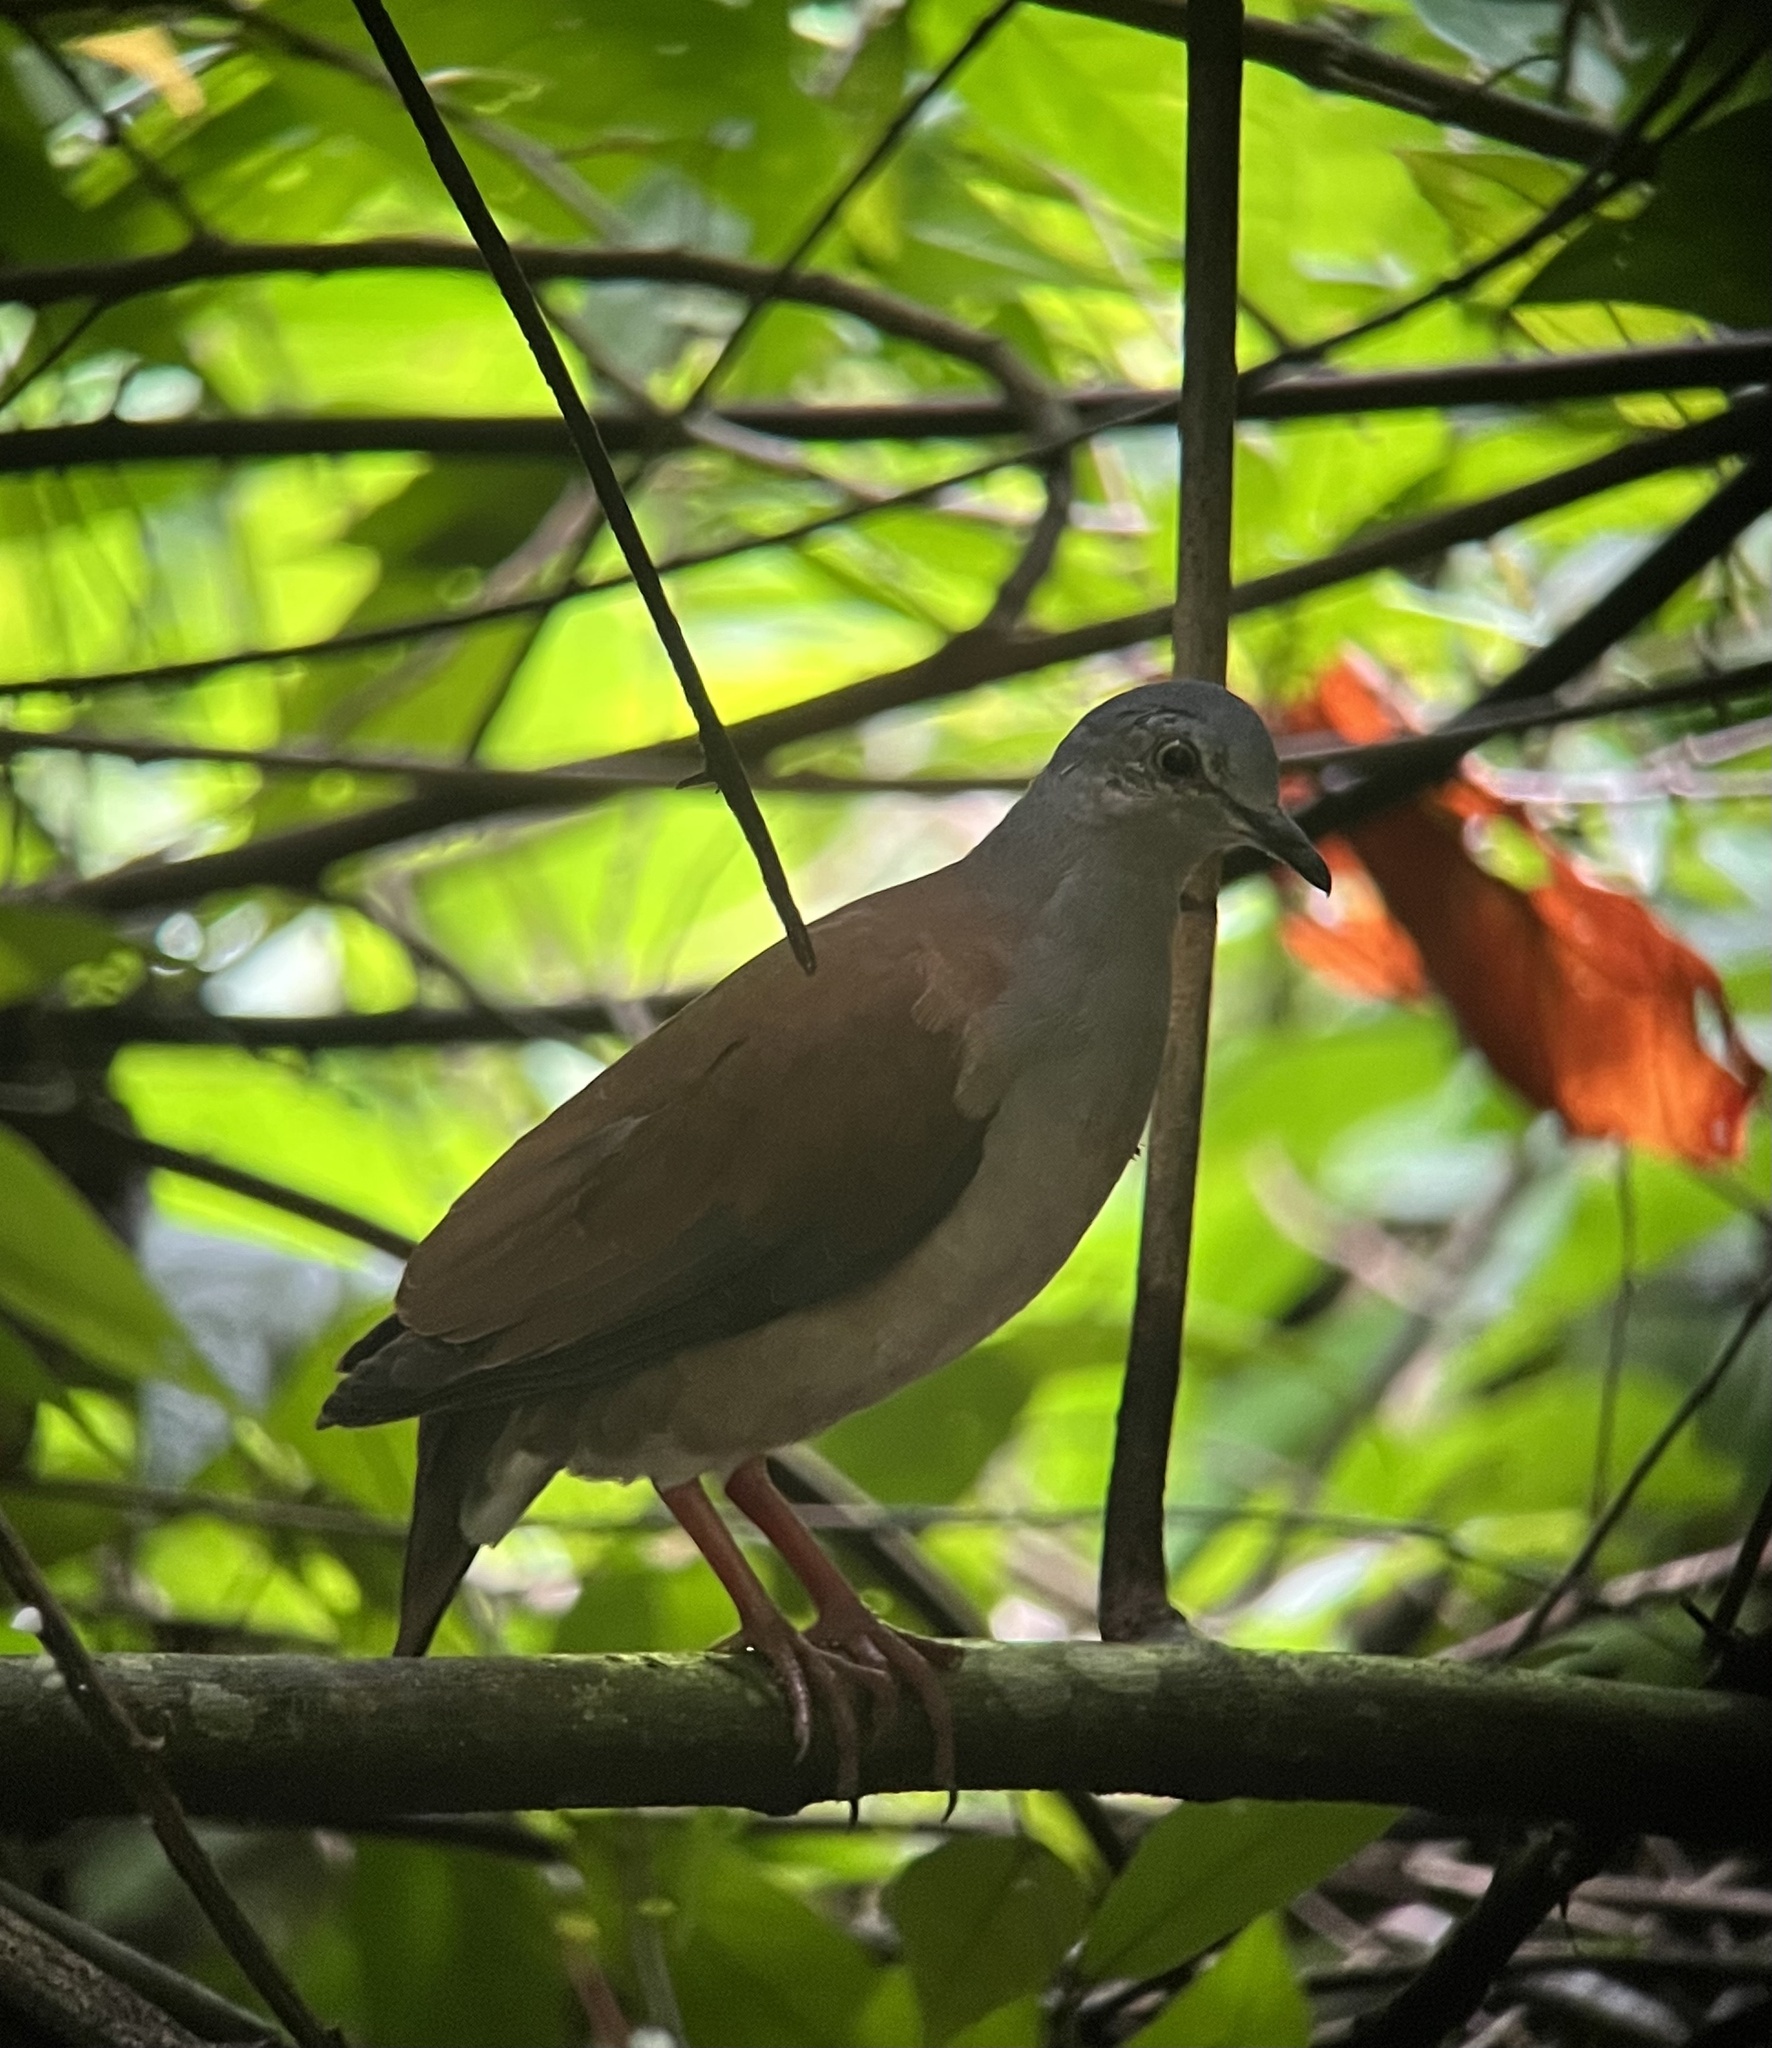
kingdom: Animalia
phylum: Chordata
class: Aves
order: Columbiformes
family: Columbidae
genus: Leptotila
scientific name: Leptotila plumbeiceps
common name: Grey-headed dove
